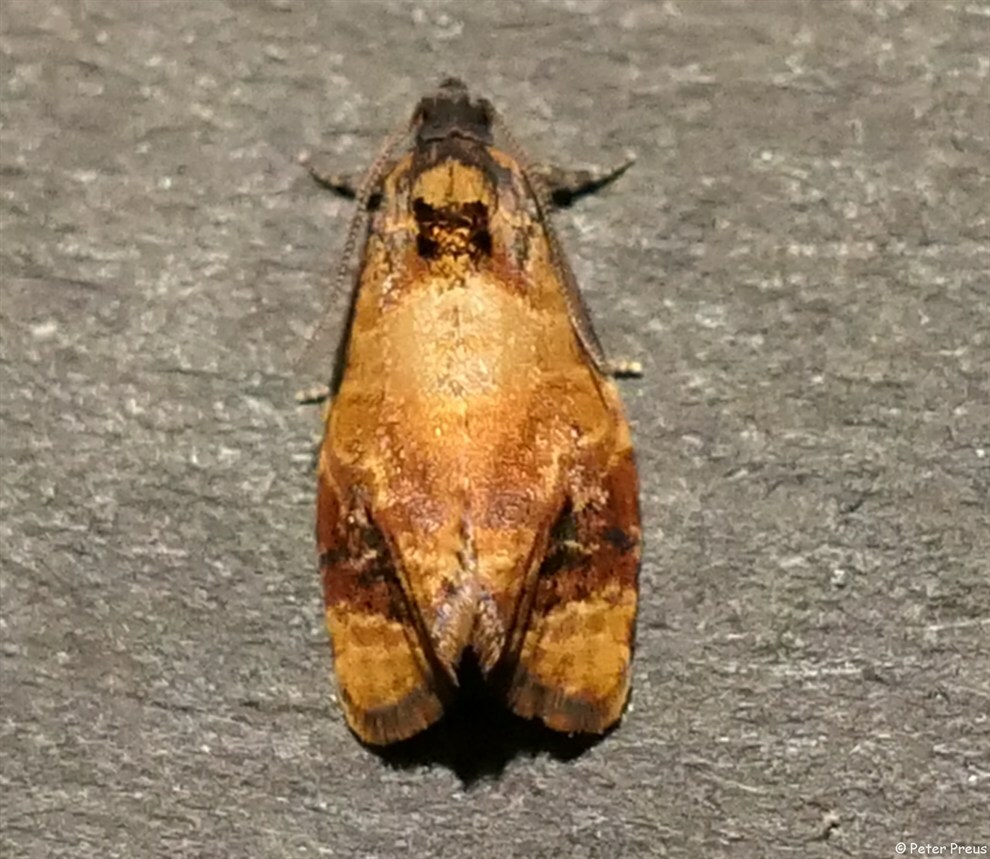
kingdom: Animalia
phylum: Arthropoda
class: Insecta
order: Lepidoptera
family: Tortricidae
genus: Ditula
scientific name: Ditula angustiorana
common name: Red-barred tortrix
